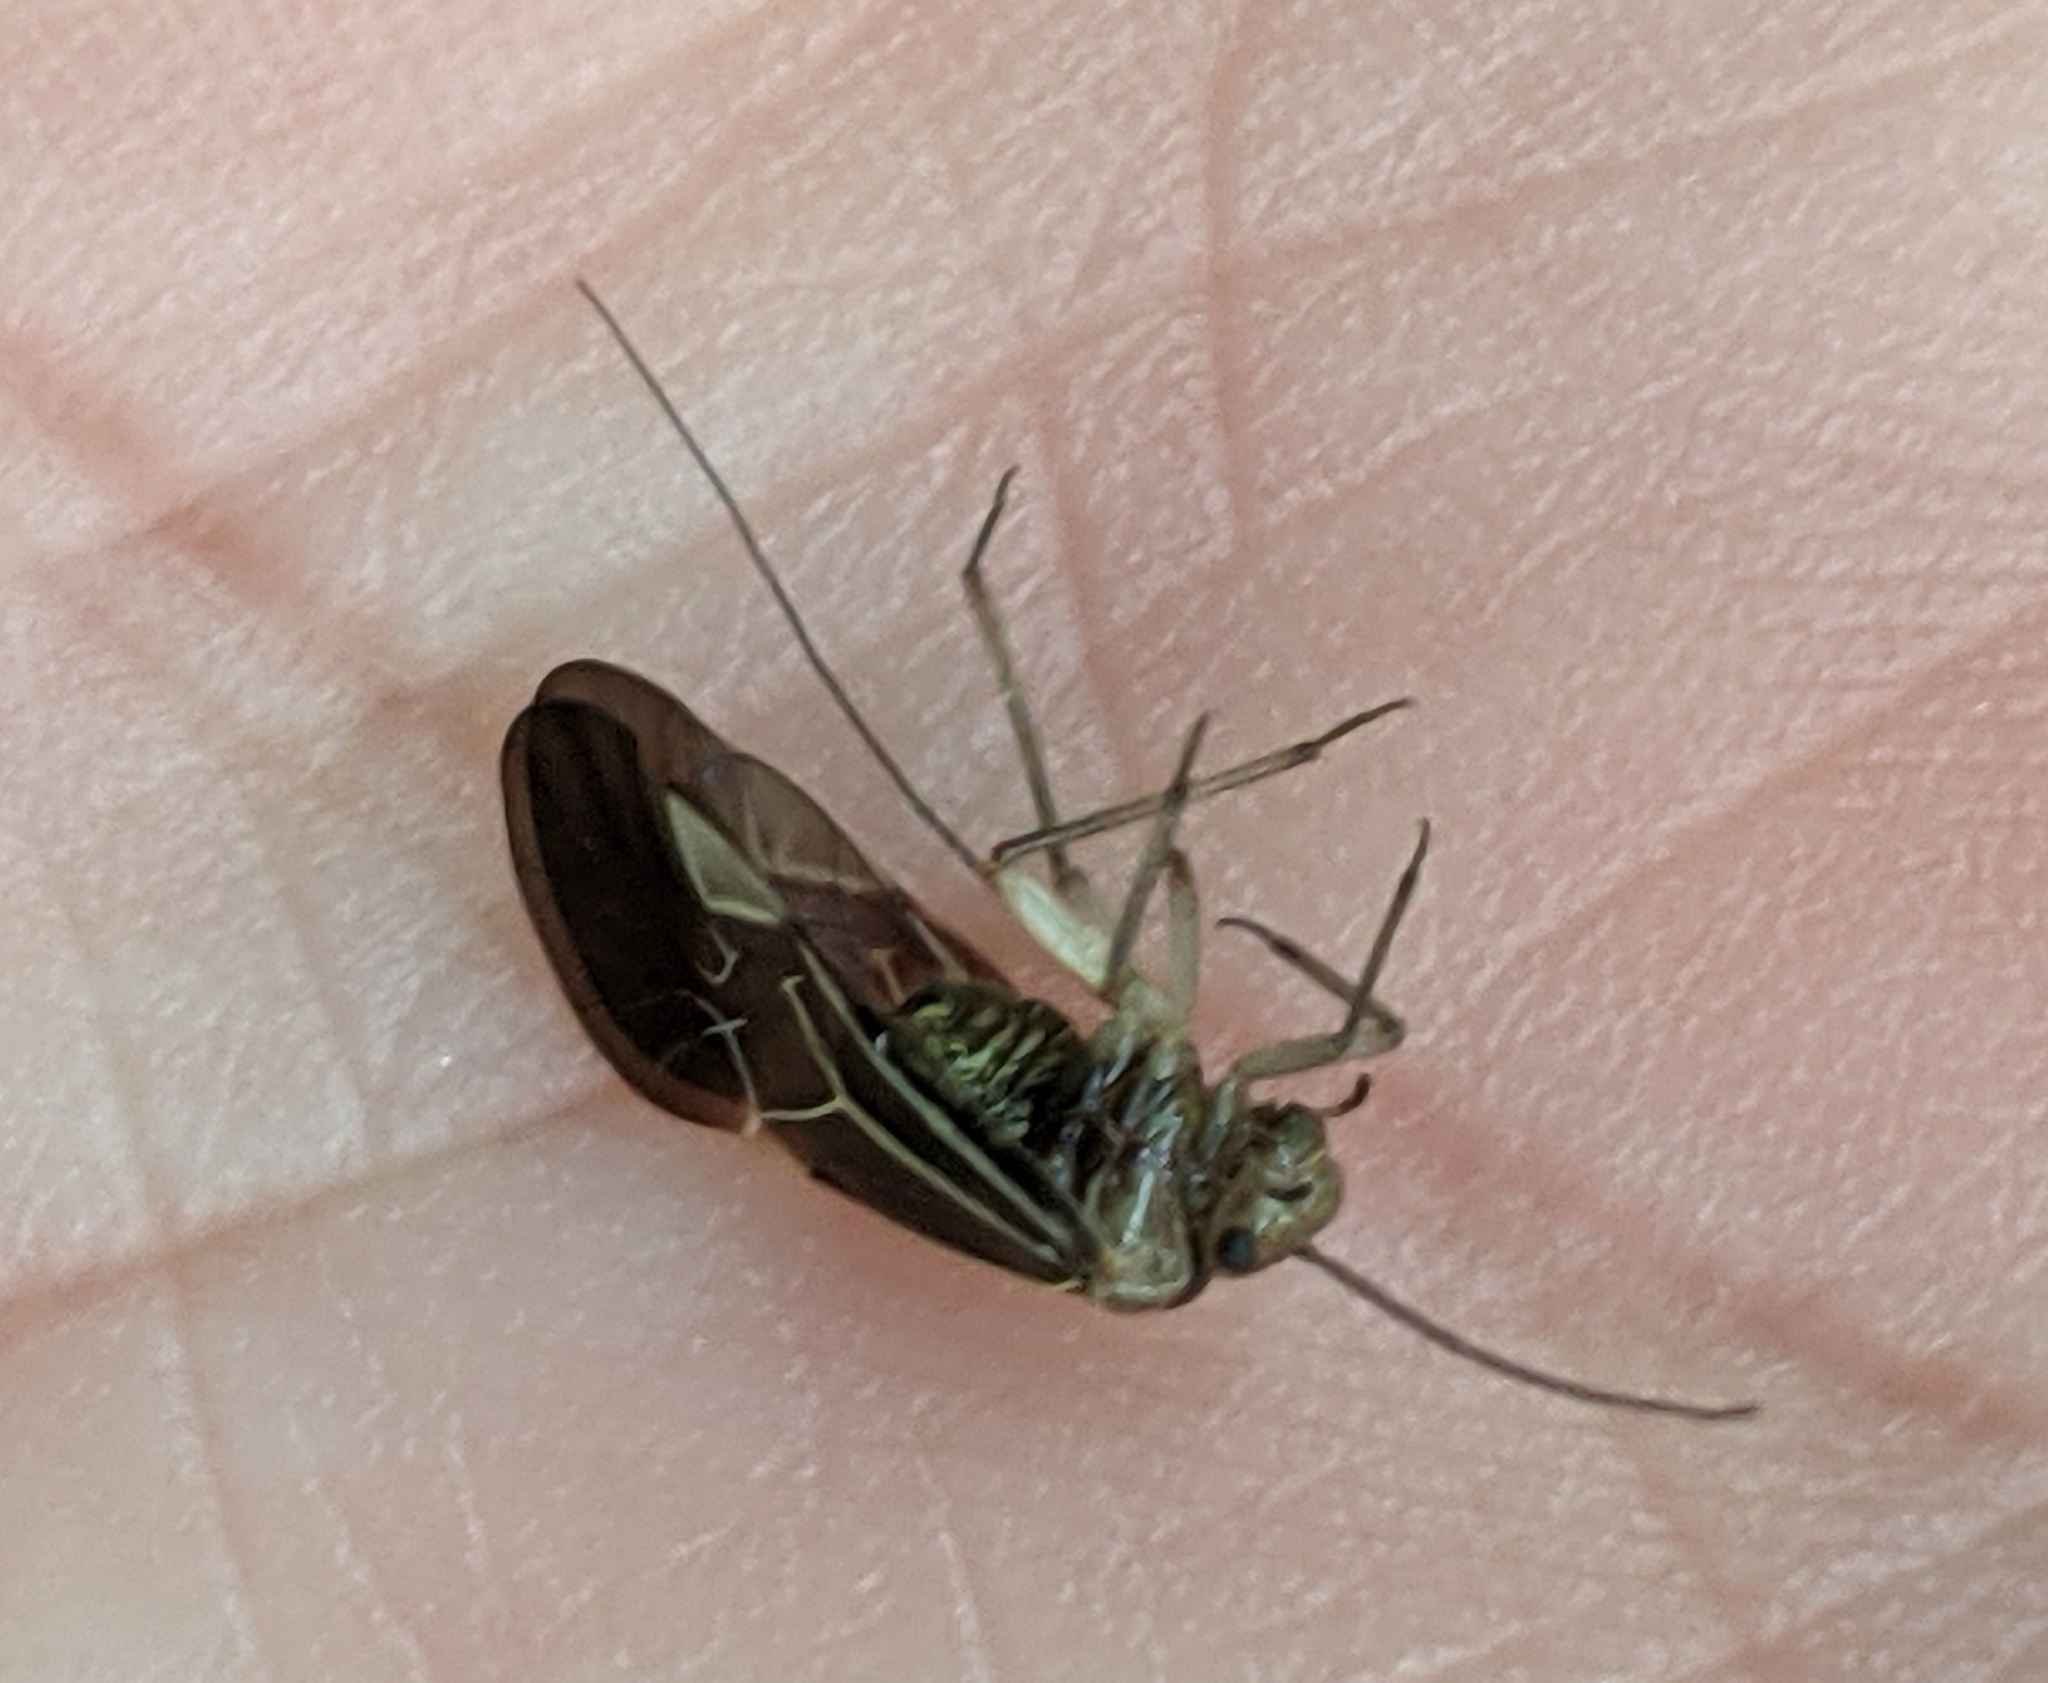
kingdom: Animalia
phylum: Arthropoda
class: Insecta
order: Psocodea
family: Psocidae
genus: Cerastipsocus
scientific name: Cerastipsocus venosus
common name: Tree cattle
